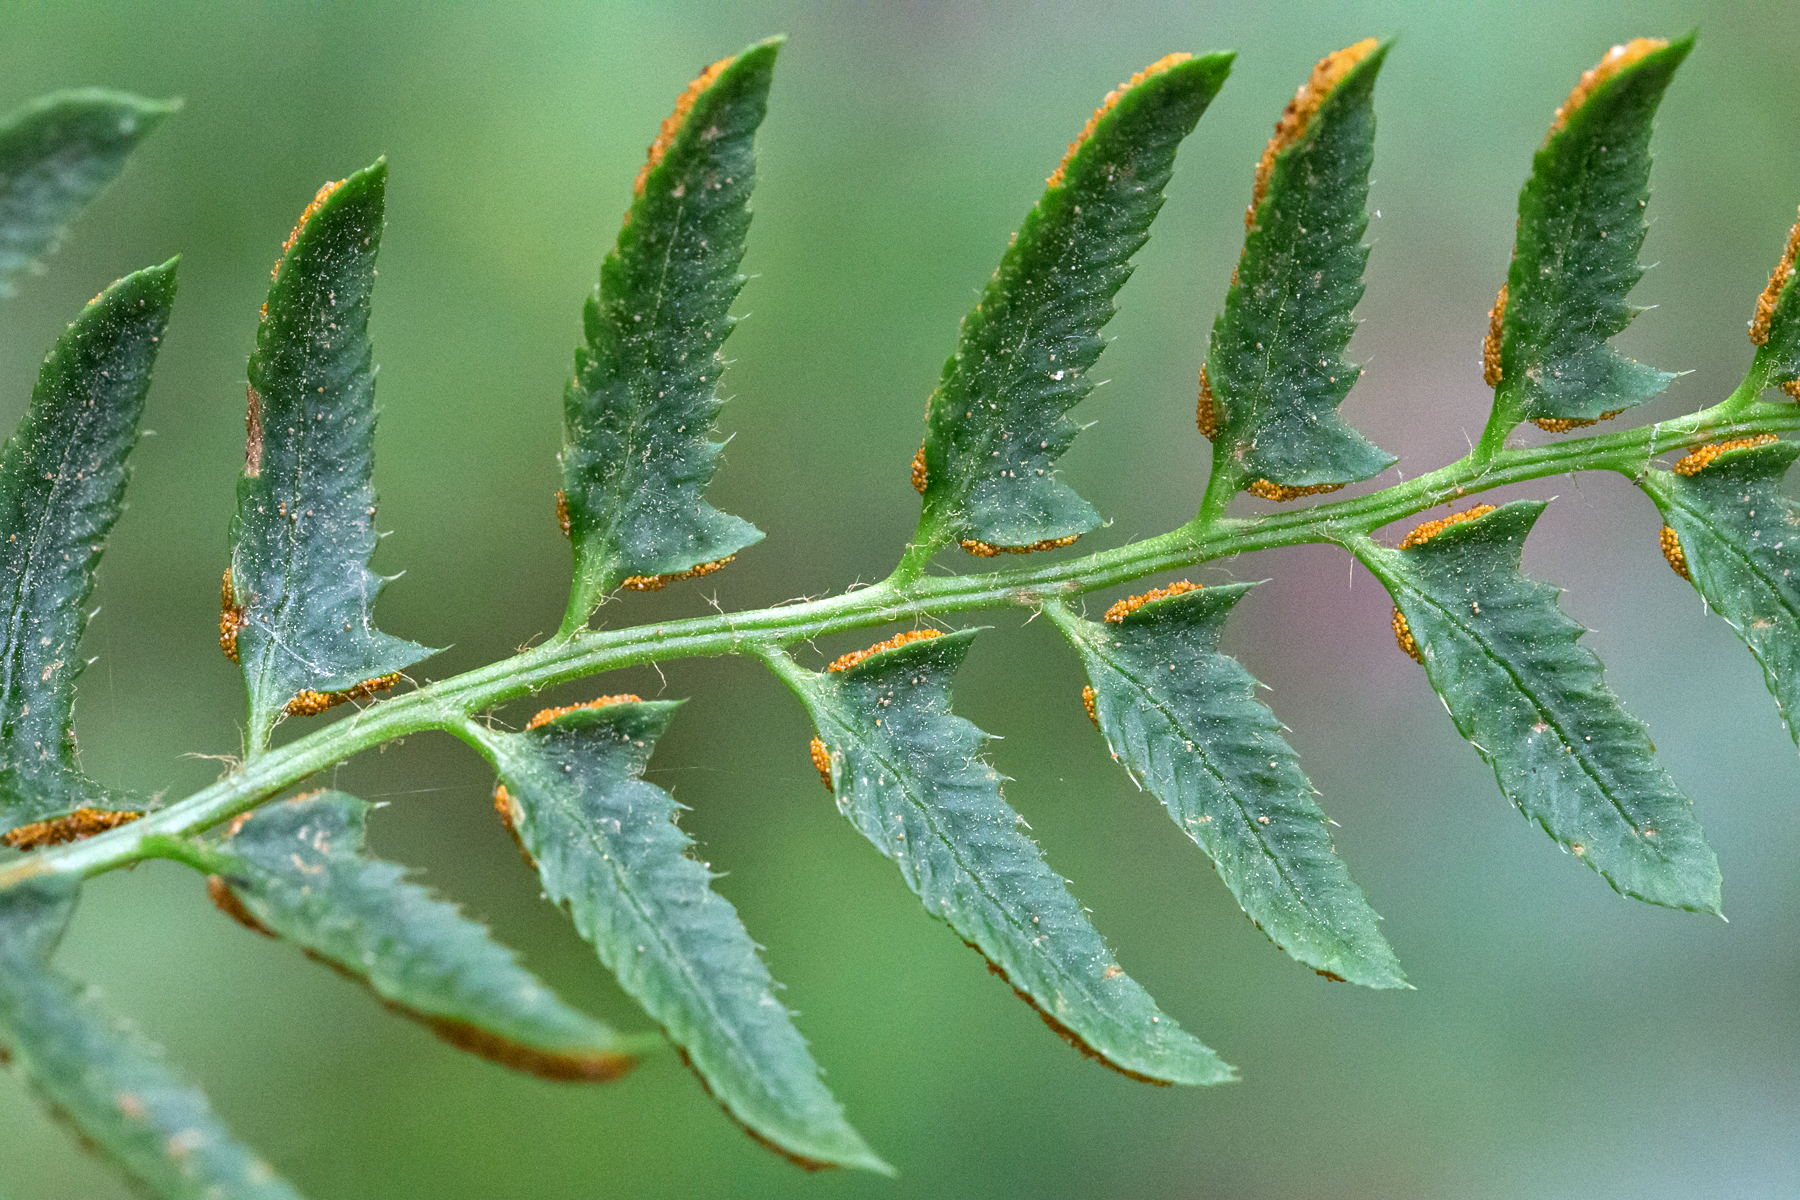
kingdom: Plantae
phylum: Tracheophyta
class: Polypodiopsida
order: Polypodiales
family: Dryopteridaceae
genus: Polystichum
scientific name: Polystichum acrostichoides
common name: Christmas fern
